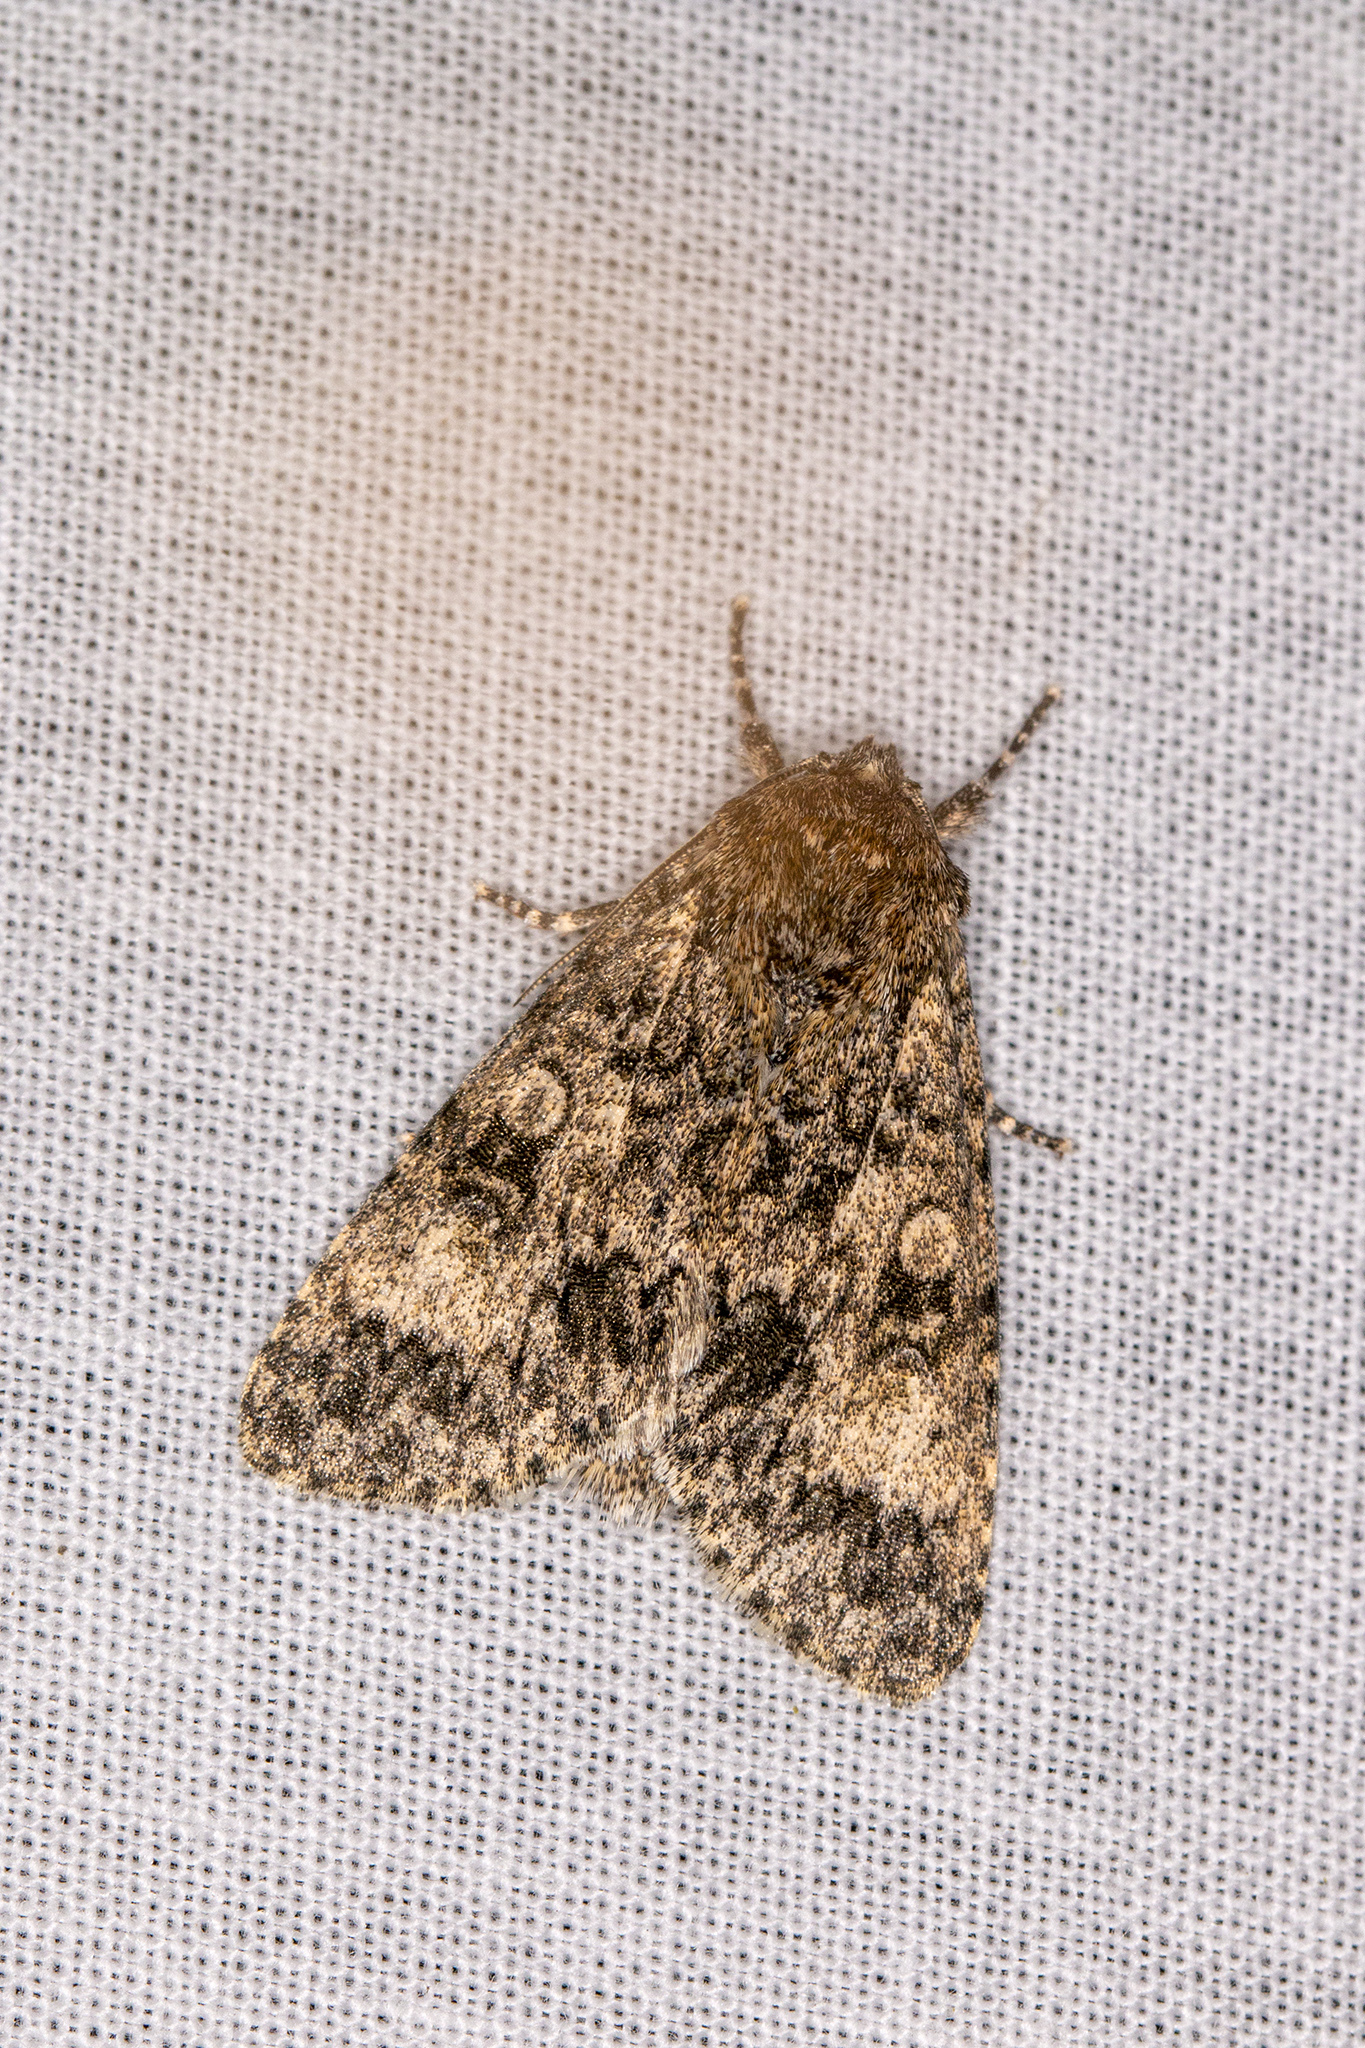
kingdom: Animalia
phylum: Arthropoda
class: Insecta
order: Lepidoptera
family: Noctuidae
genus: Acronicta
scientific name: Acronicta megacephala
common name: Poplar grey
